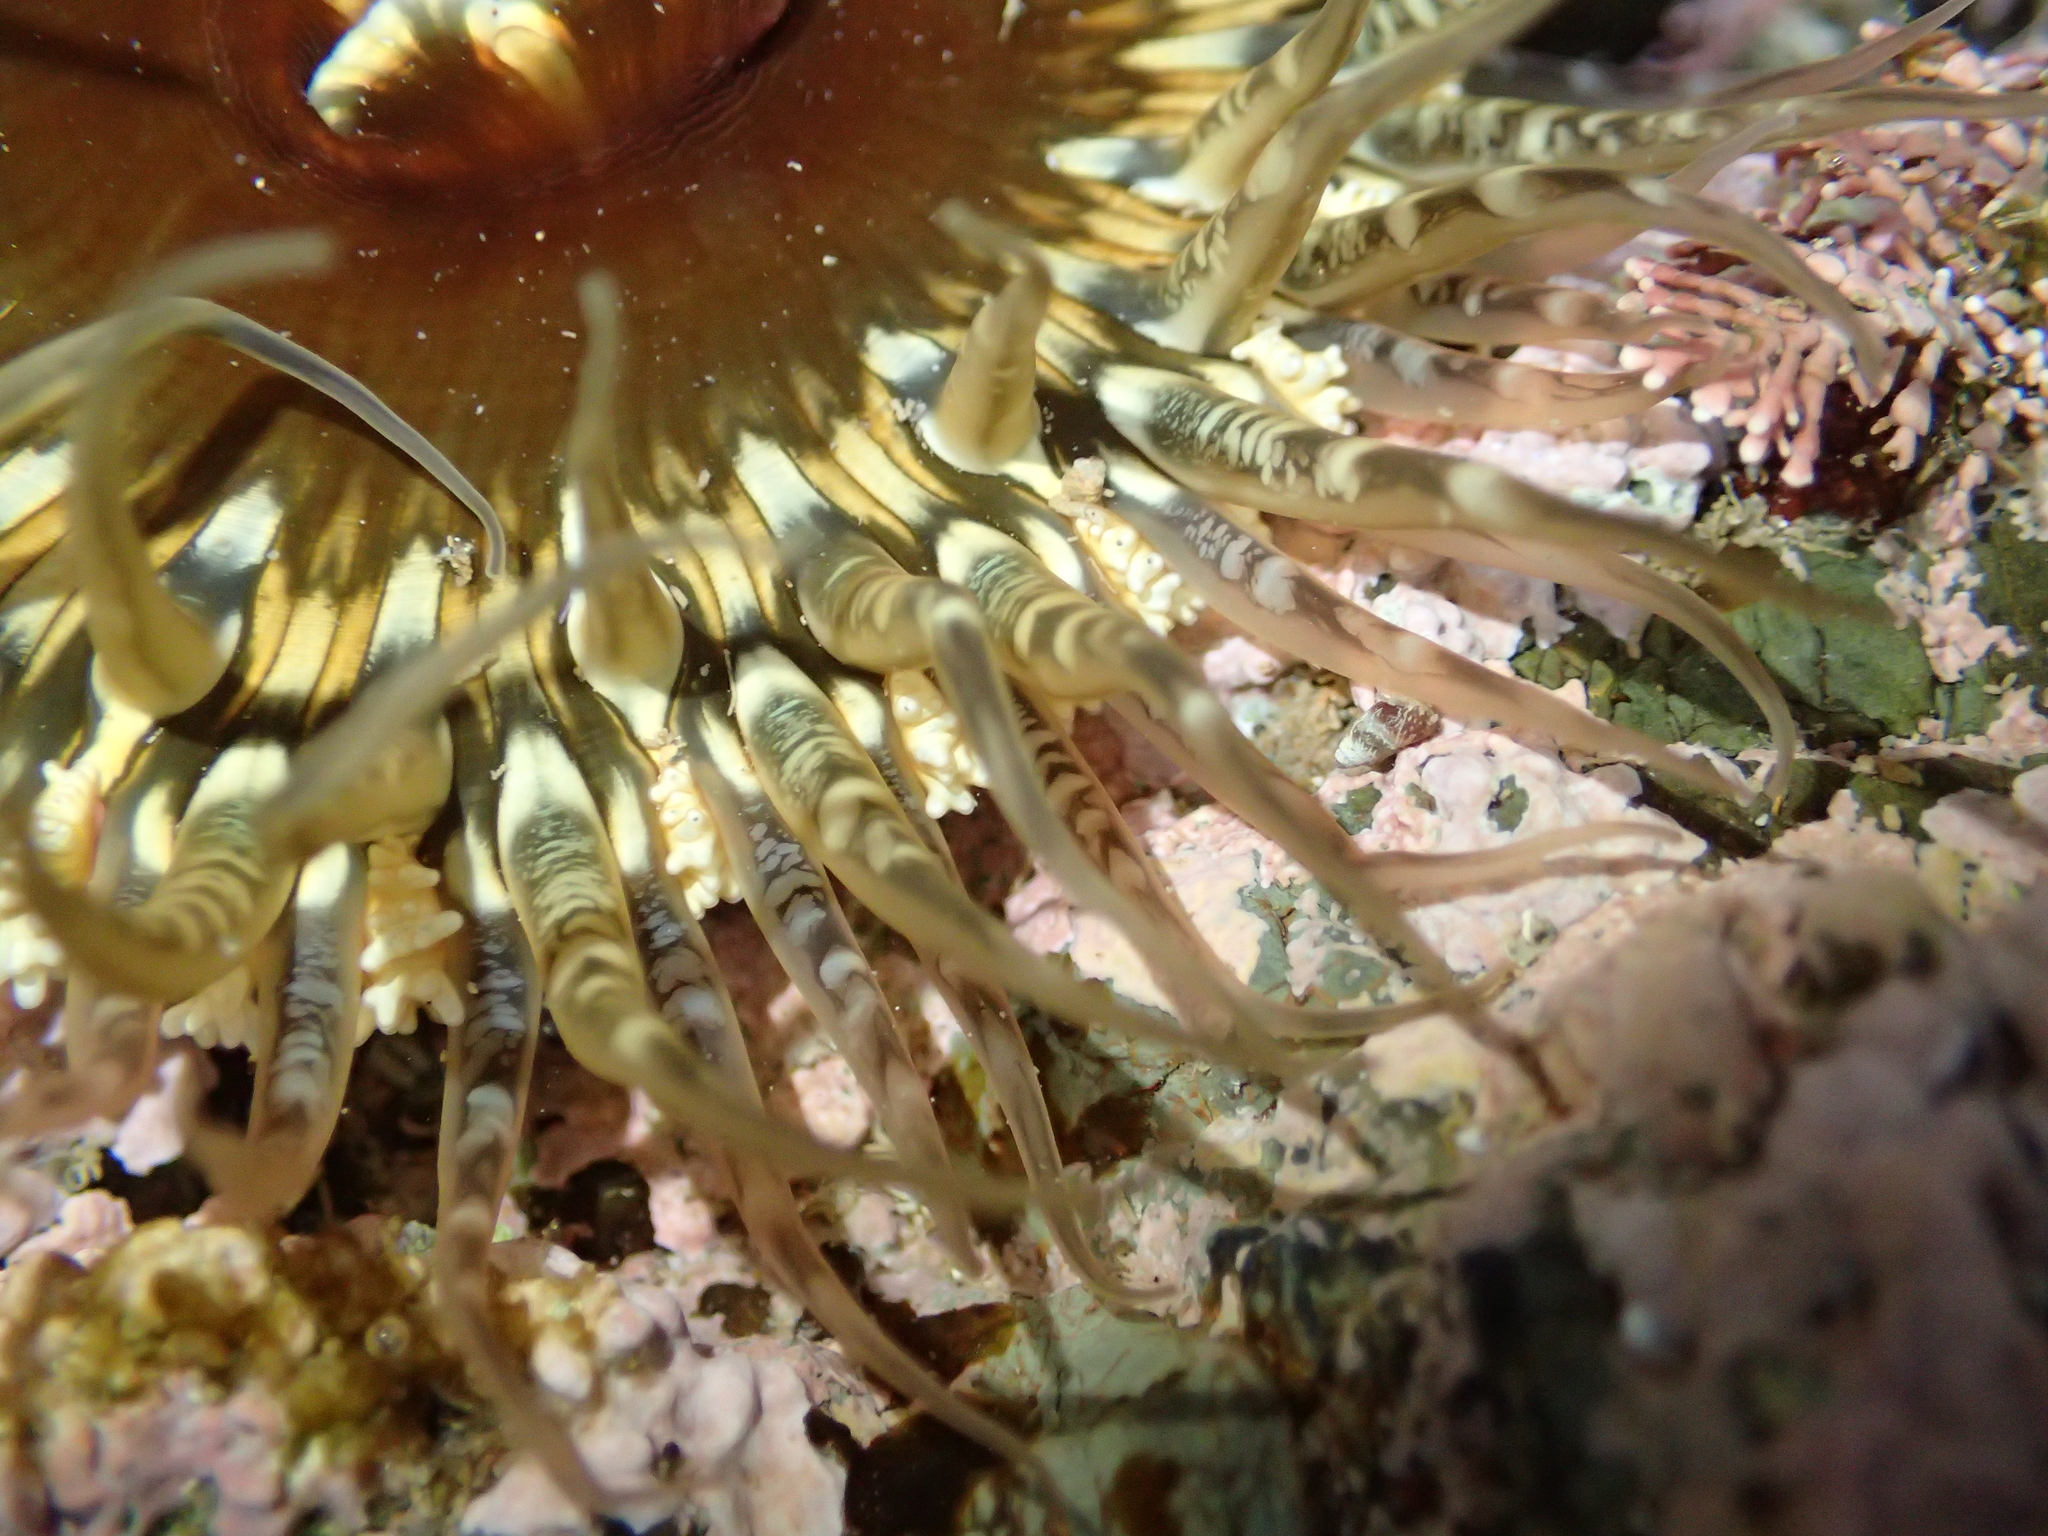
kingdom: Animalia
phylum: Cnidaria
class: Anthozoa
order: Actiniaria
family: Actiniidae
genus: Oulactis
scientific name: Oulactis muscosa
